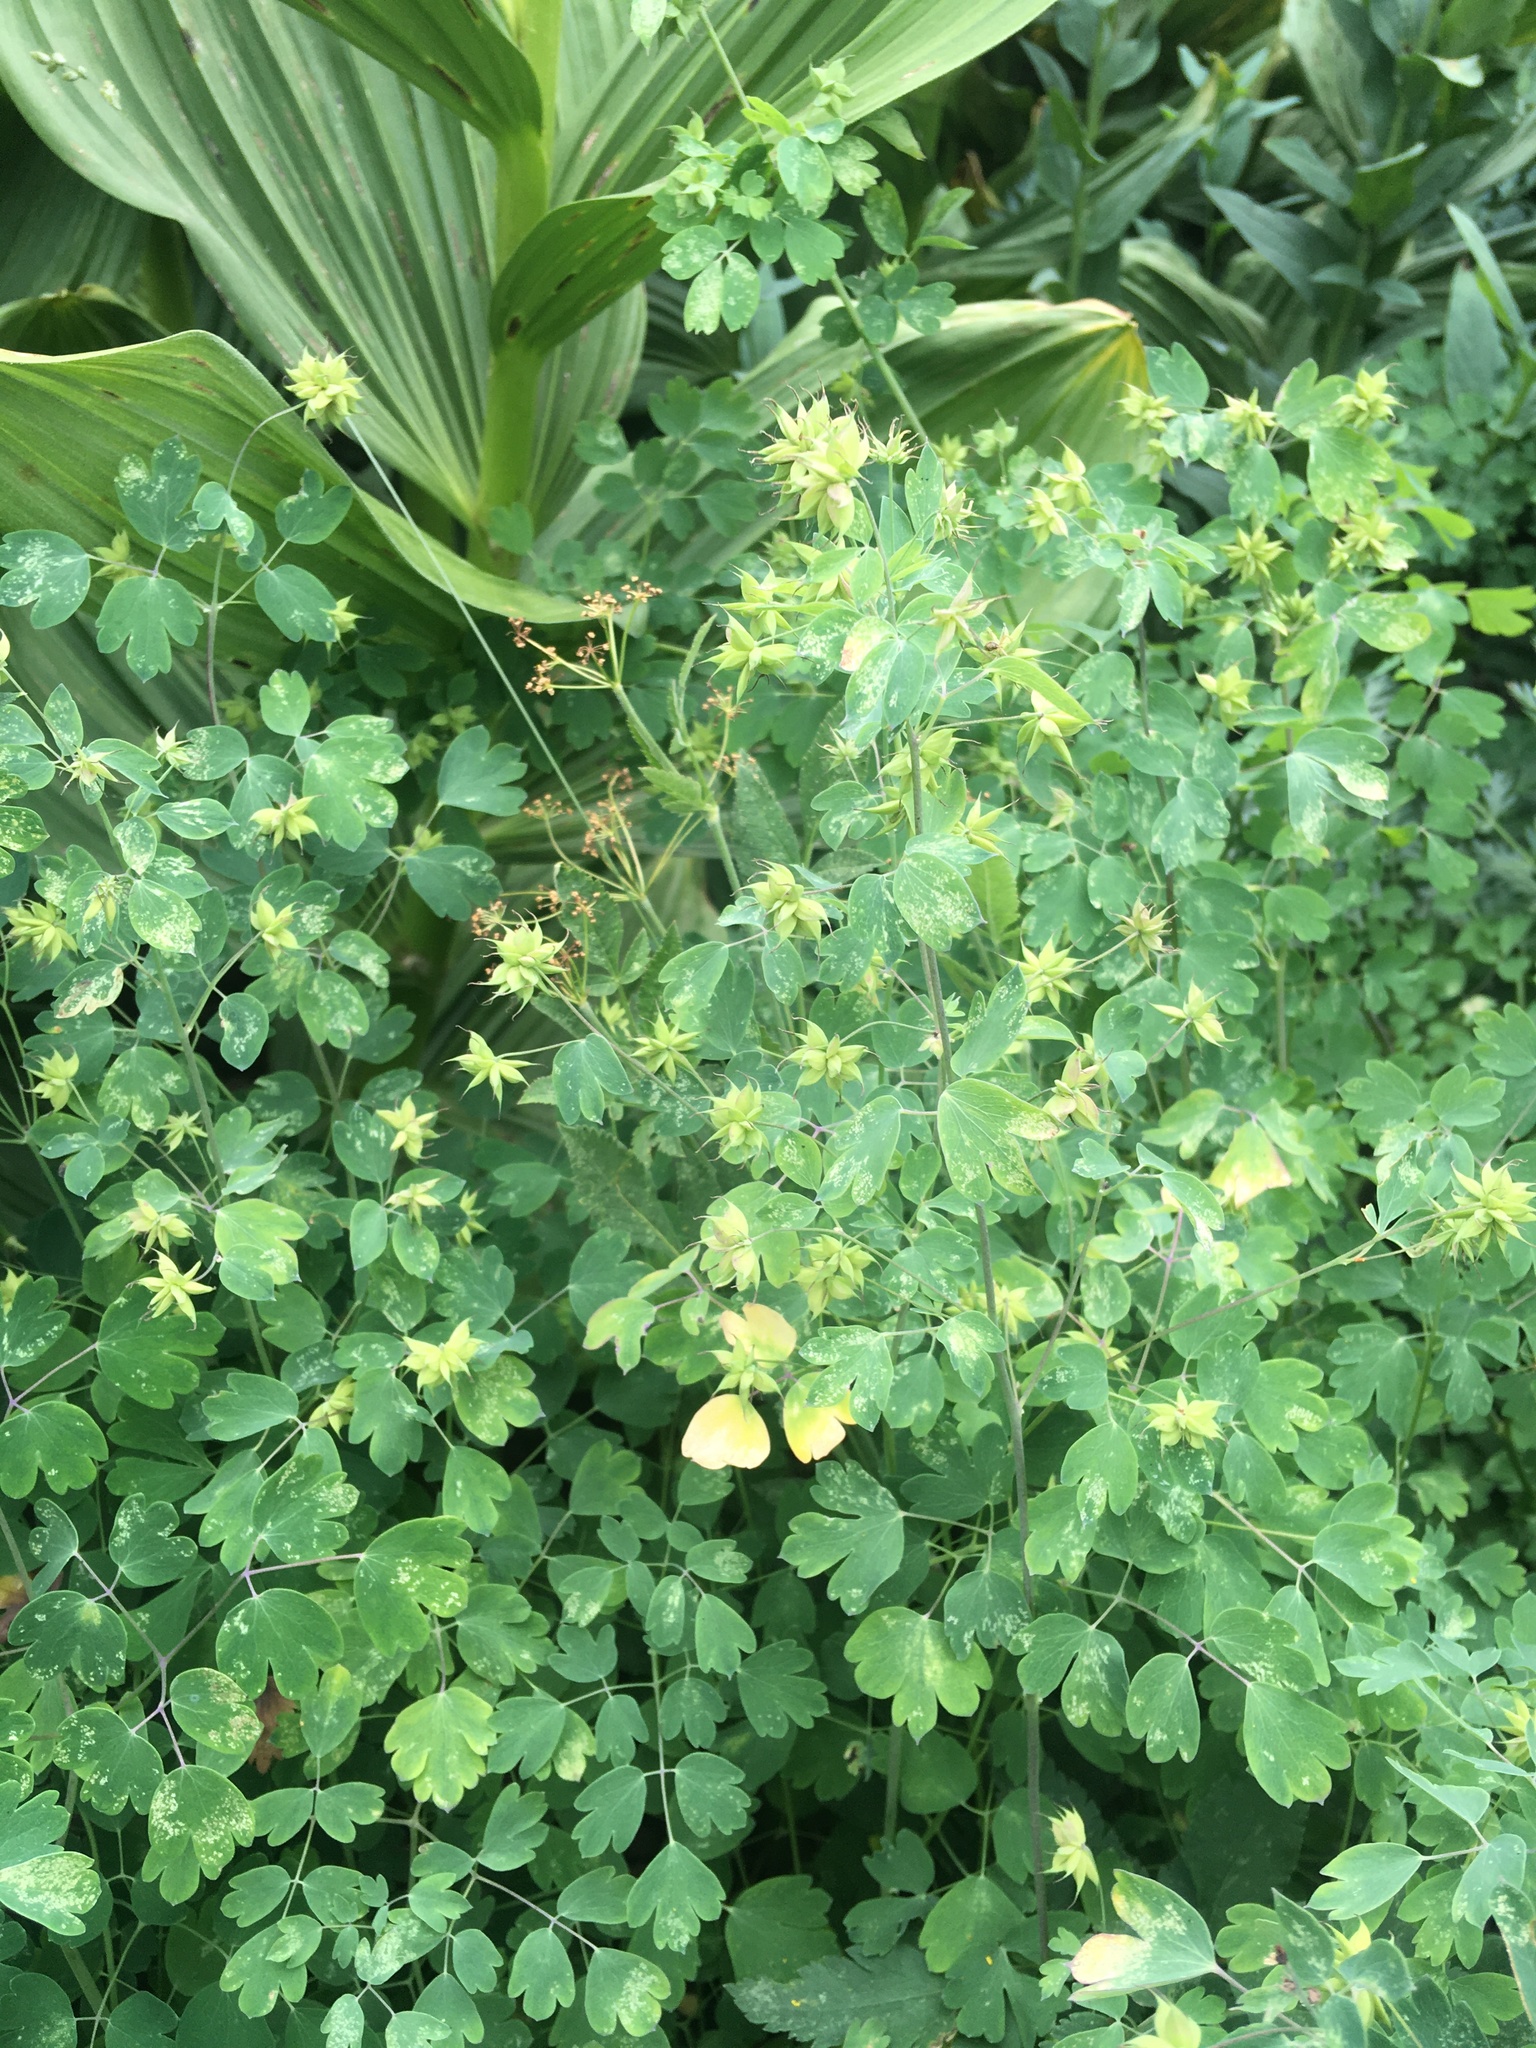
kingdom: Plantae
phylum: Tracheophyta
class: Magnoliopsida
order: Ranunculales
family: Ranunculaceae
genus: Thalictrum
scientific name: Thalictrum fendleri
